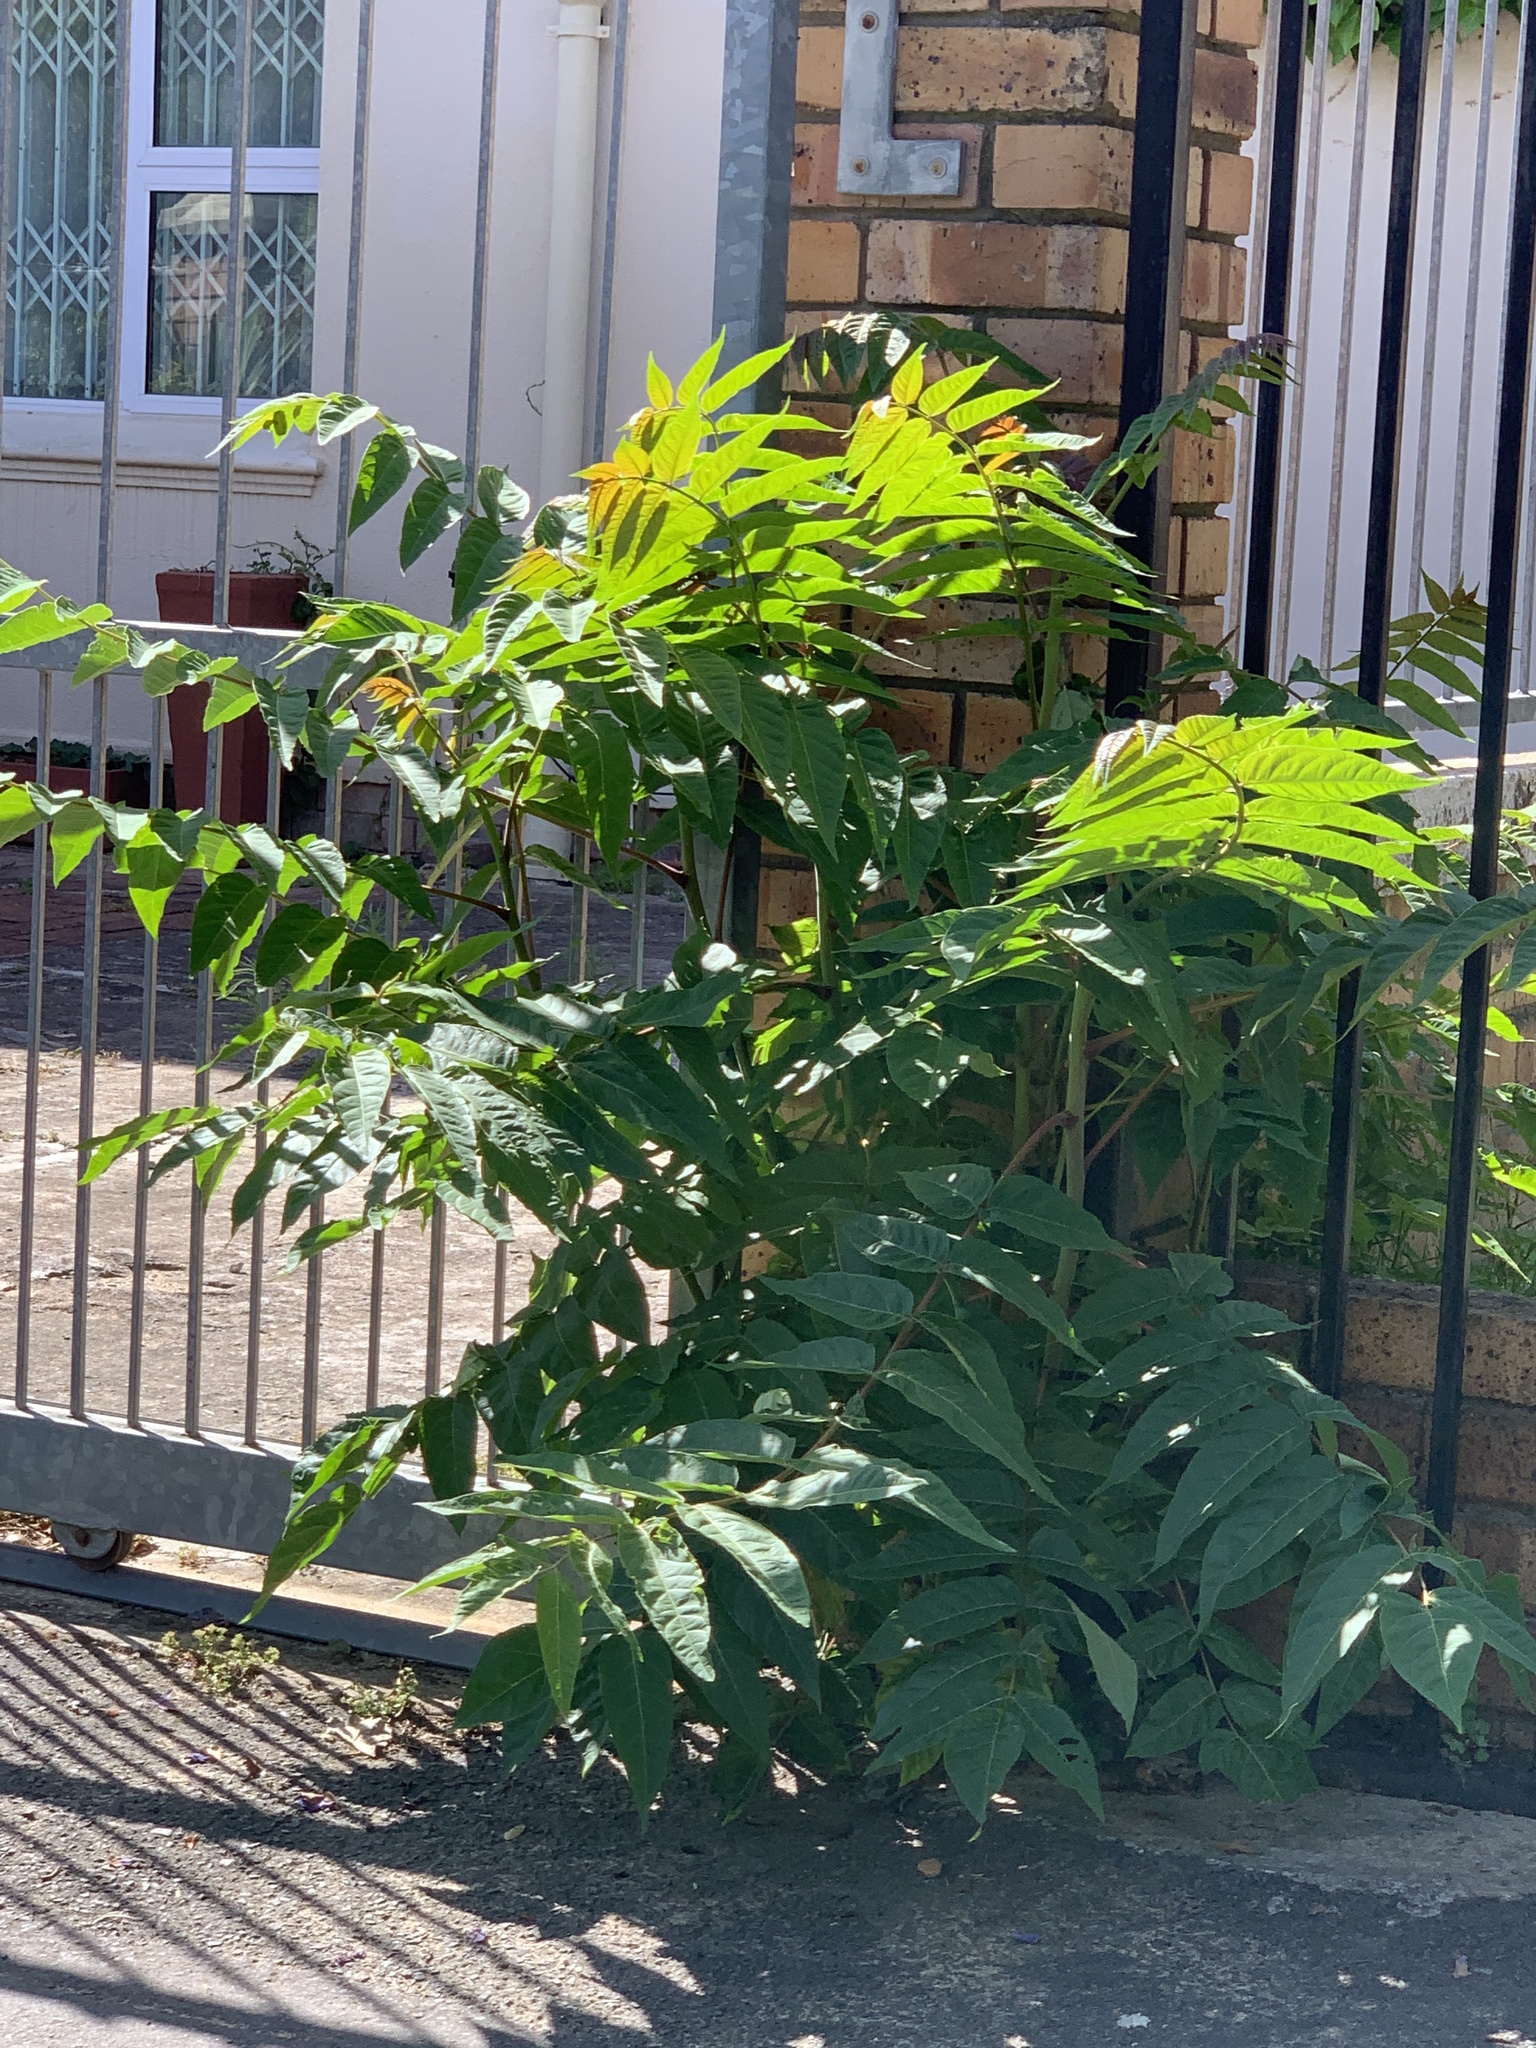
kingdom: Plantae
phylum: Tracheophyta
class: Magnoliopsida
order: Sapindales
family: Simaroubaceae
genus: Ailanthus
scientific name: Ailanthus altissima
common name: Tree-of-heaven
